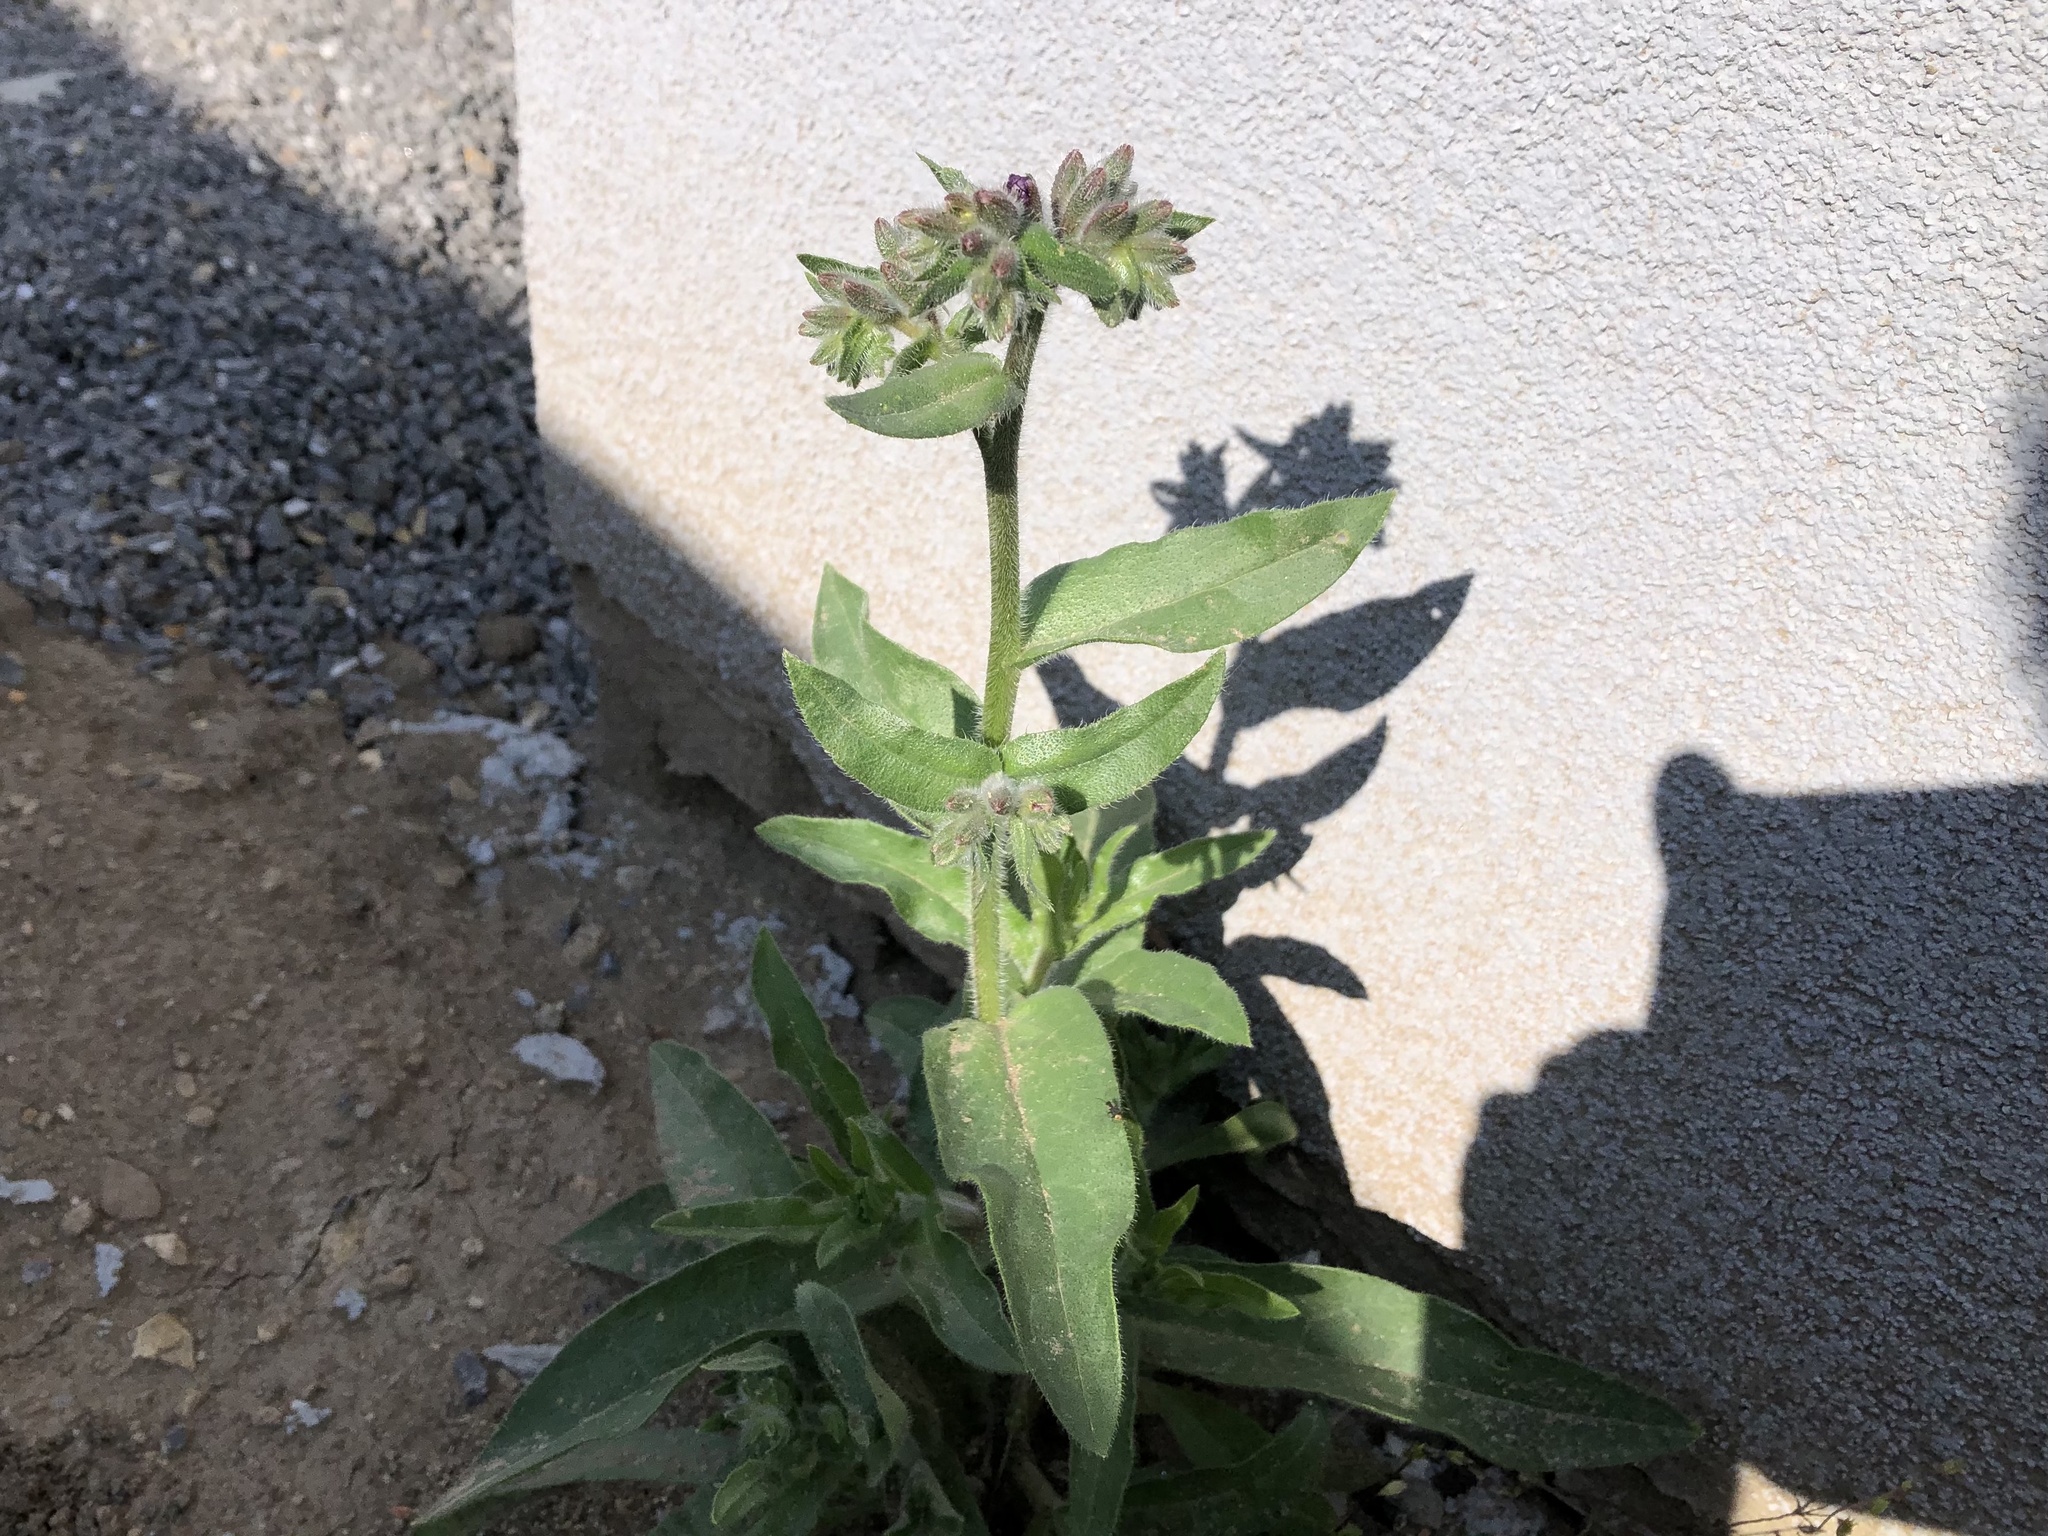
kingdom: Plantae
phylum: Tracheophyta
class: Magnoliopsida
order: Boraginales
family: Boraginaceae
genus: Anchusa
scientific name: Anchusa officinalis
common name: Alkanet
